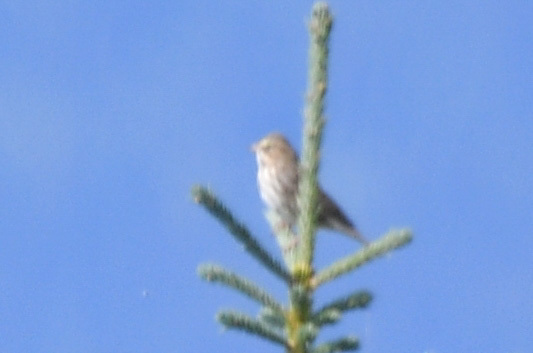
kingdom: Animalia
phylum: Chordata
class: Aves
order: Passeriformes
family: Passerellidae
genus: Passerculus
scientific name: Passerculus sandwichensis
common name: Savannah sparrow
